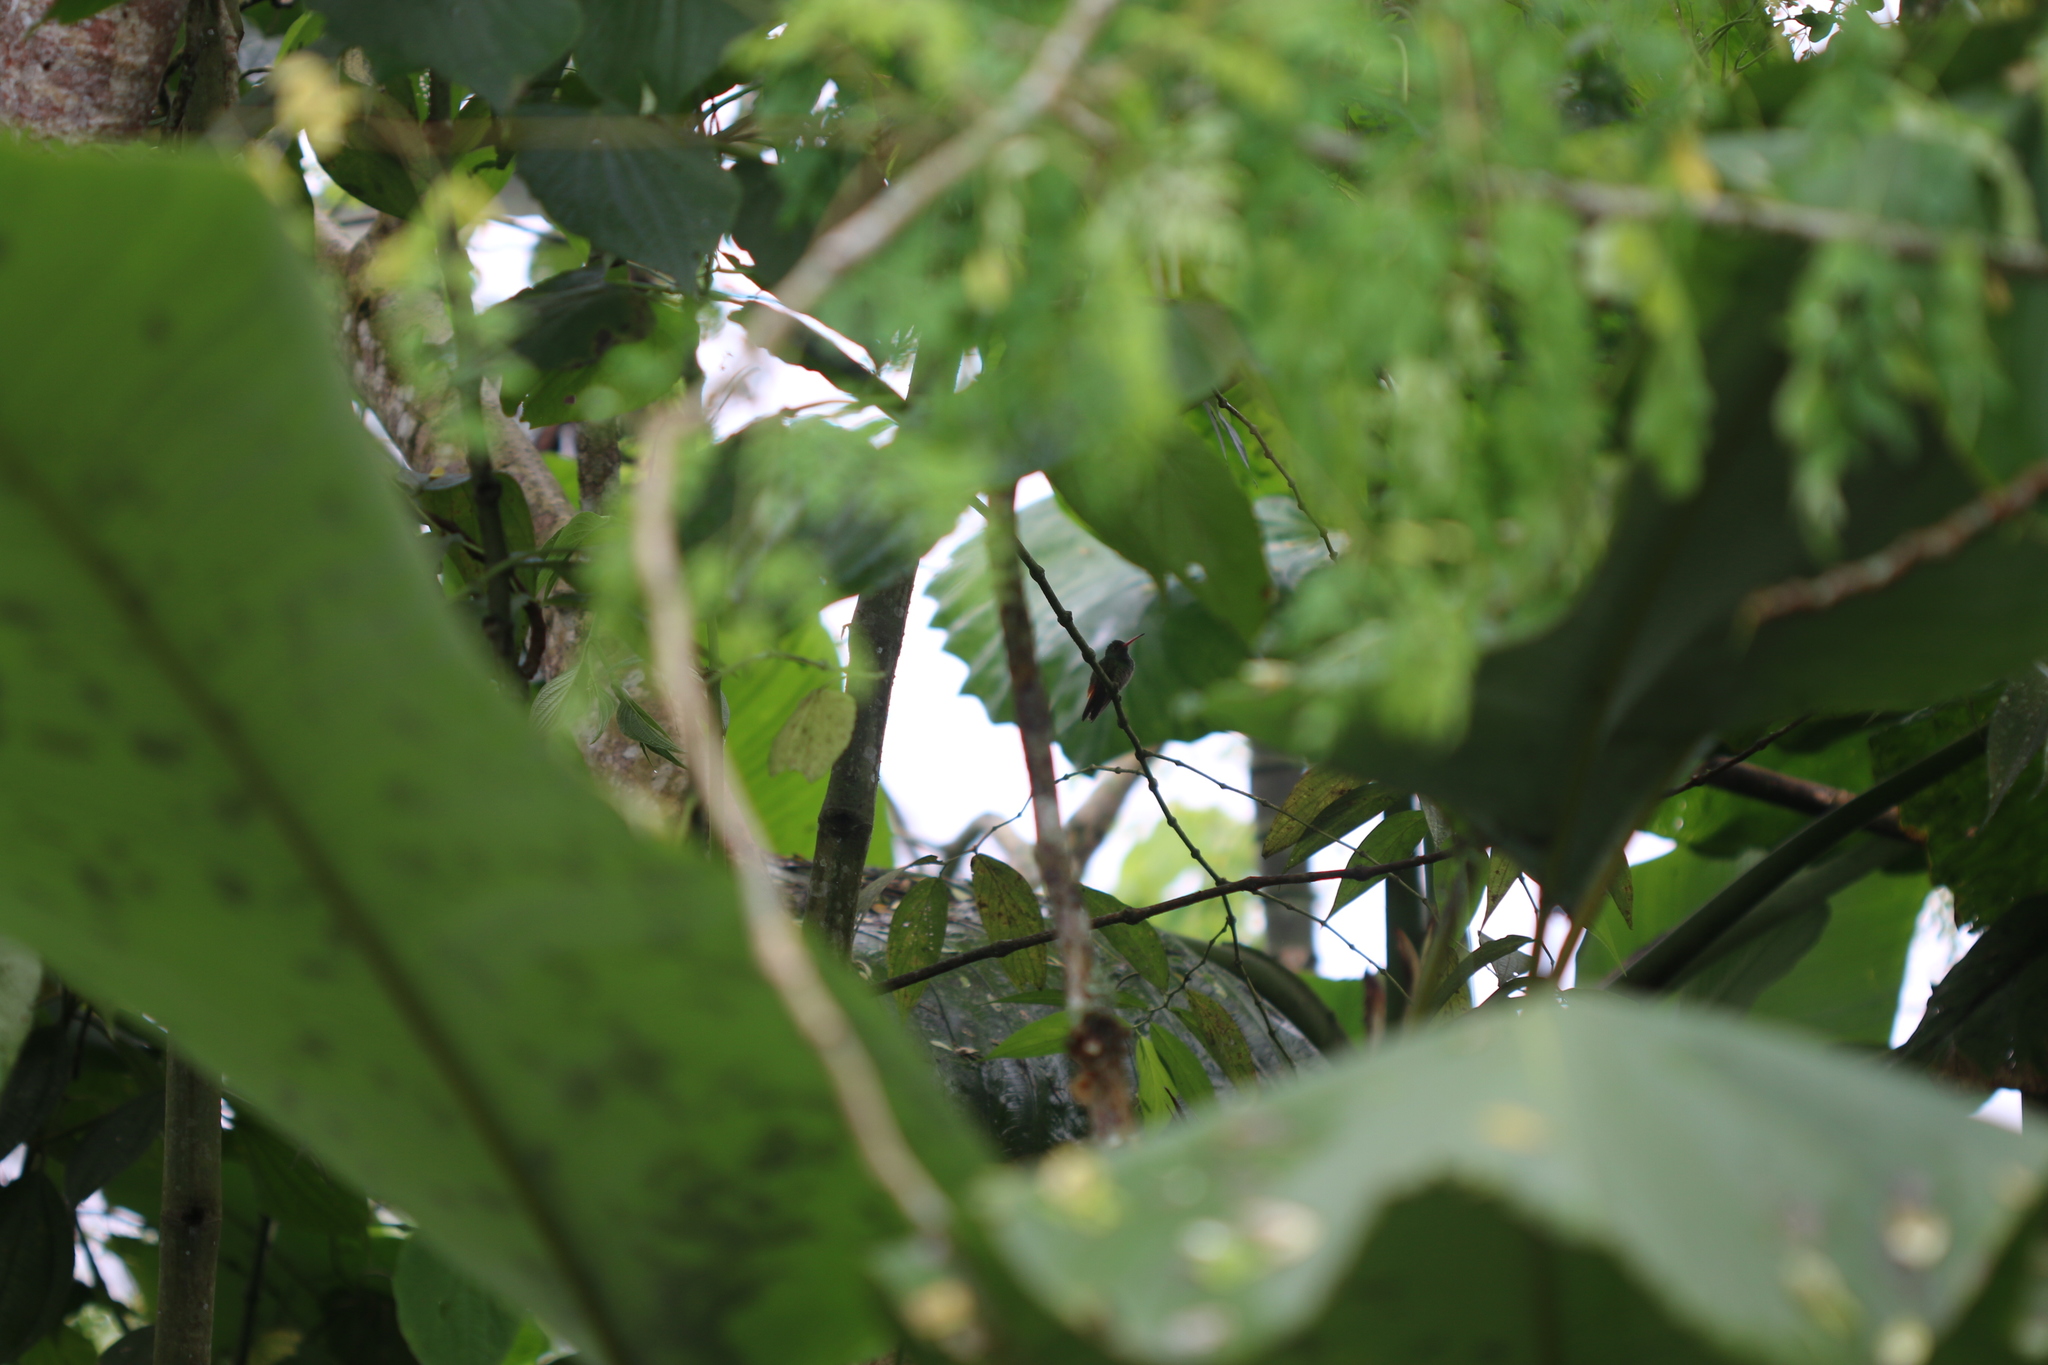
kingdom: Animalia
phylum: Chordata
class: Aves
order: Apodiformes
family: Trochilidae
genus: Amazilia
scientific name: Amazilia tzacatl
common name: Rufous-tailed hummingbird
